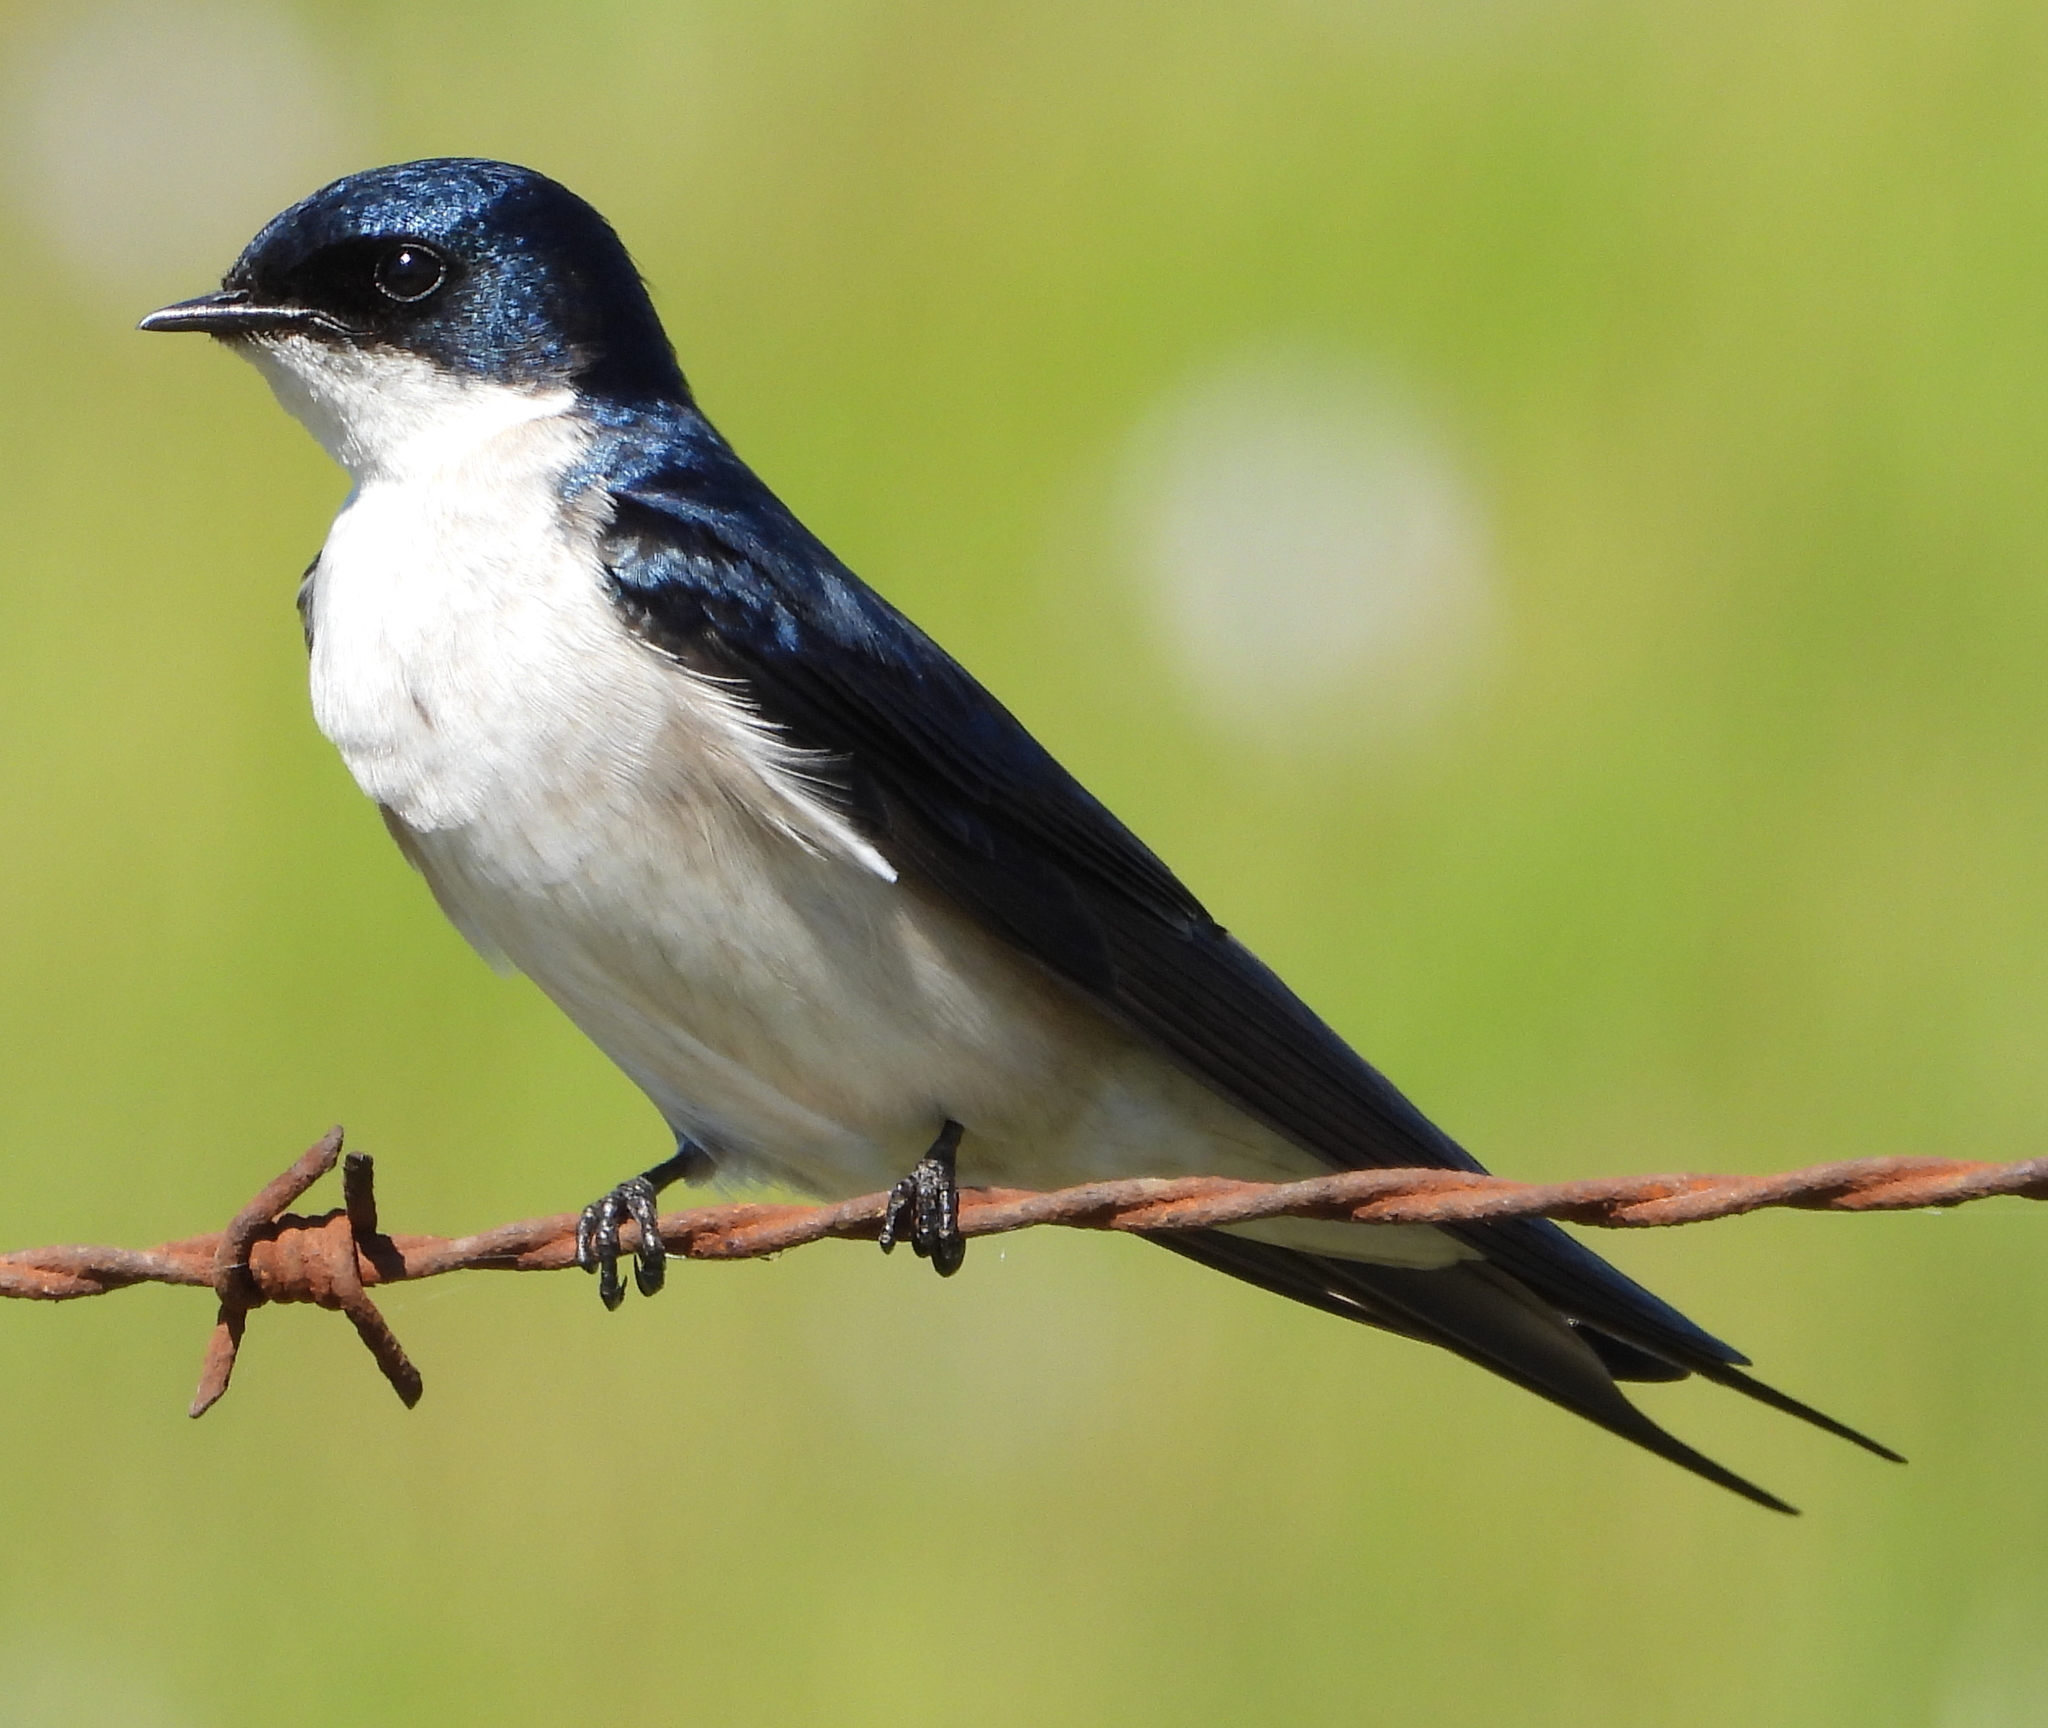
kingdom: Animalia
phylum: Chordata
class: Aves
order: Passeriformes
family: Hirundinidae
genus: Hirundo
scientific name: Hirundo dimidiata
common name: Pearl-breasted swallow
